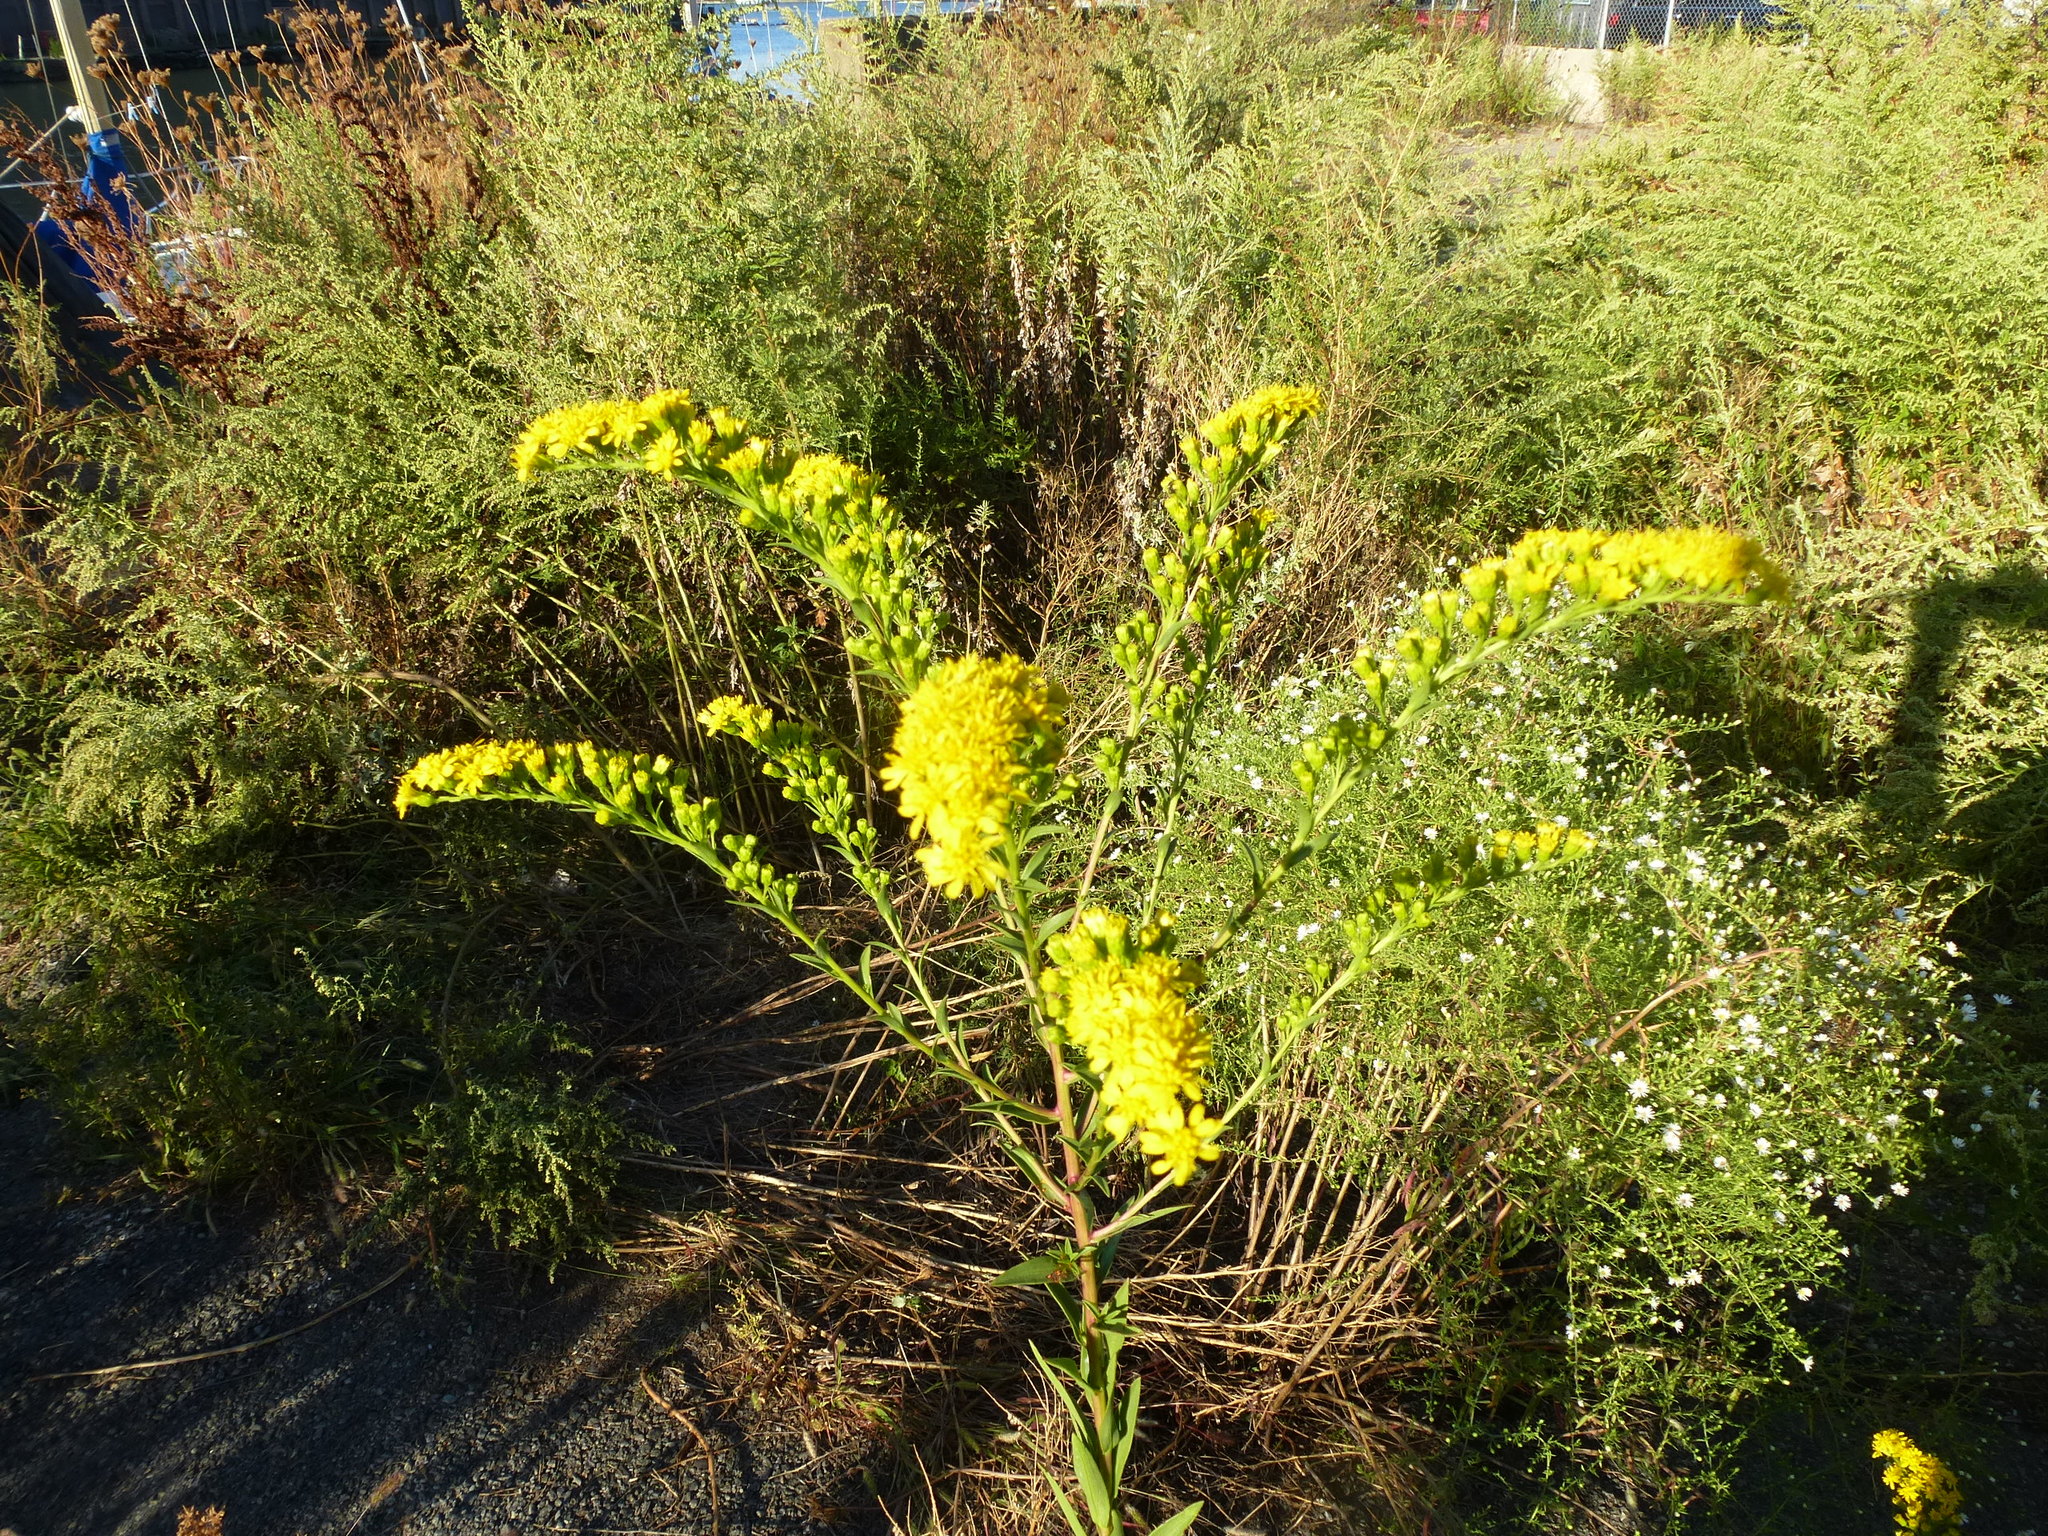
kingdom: Plantae
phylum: Tracheophyta
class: Magnoliopsida
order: Asterales
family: Asteraceae
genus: Solidago
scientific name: Solidago sempervirens
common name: Salt-marsh goldenrod
